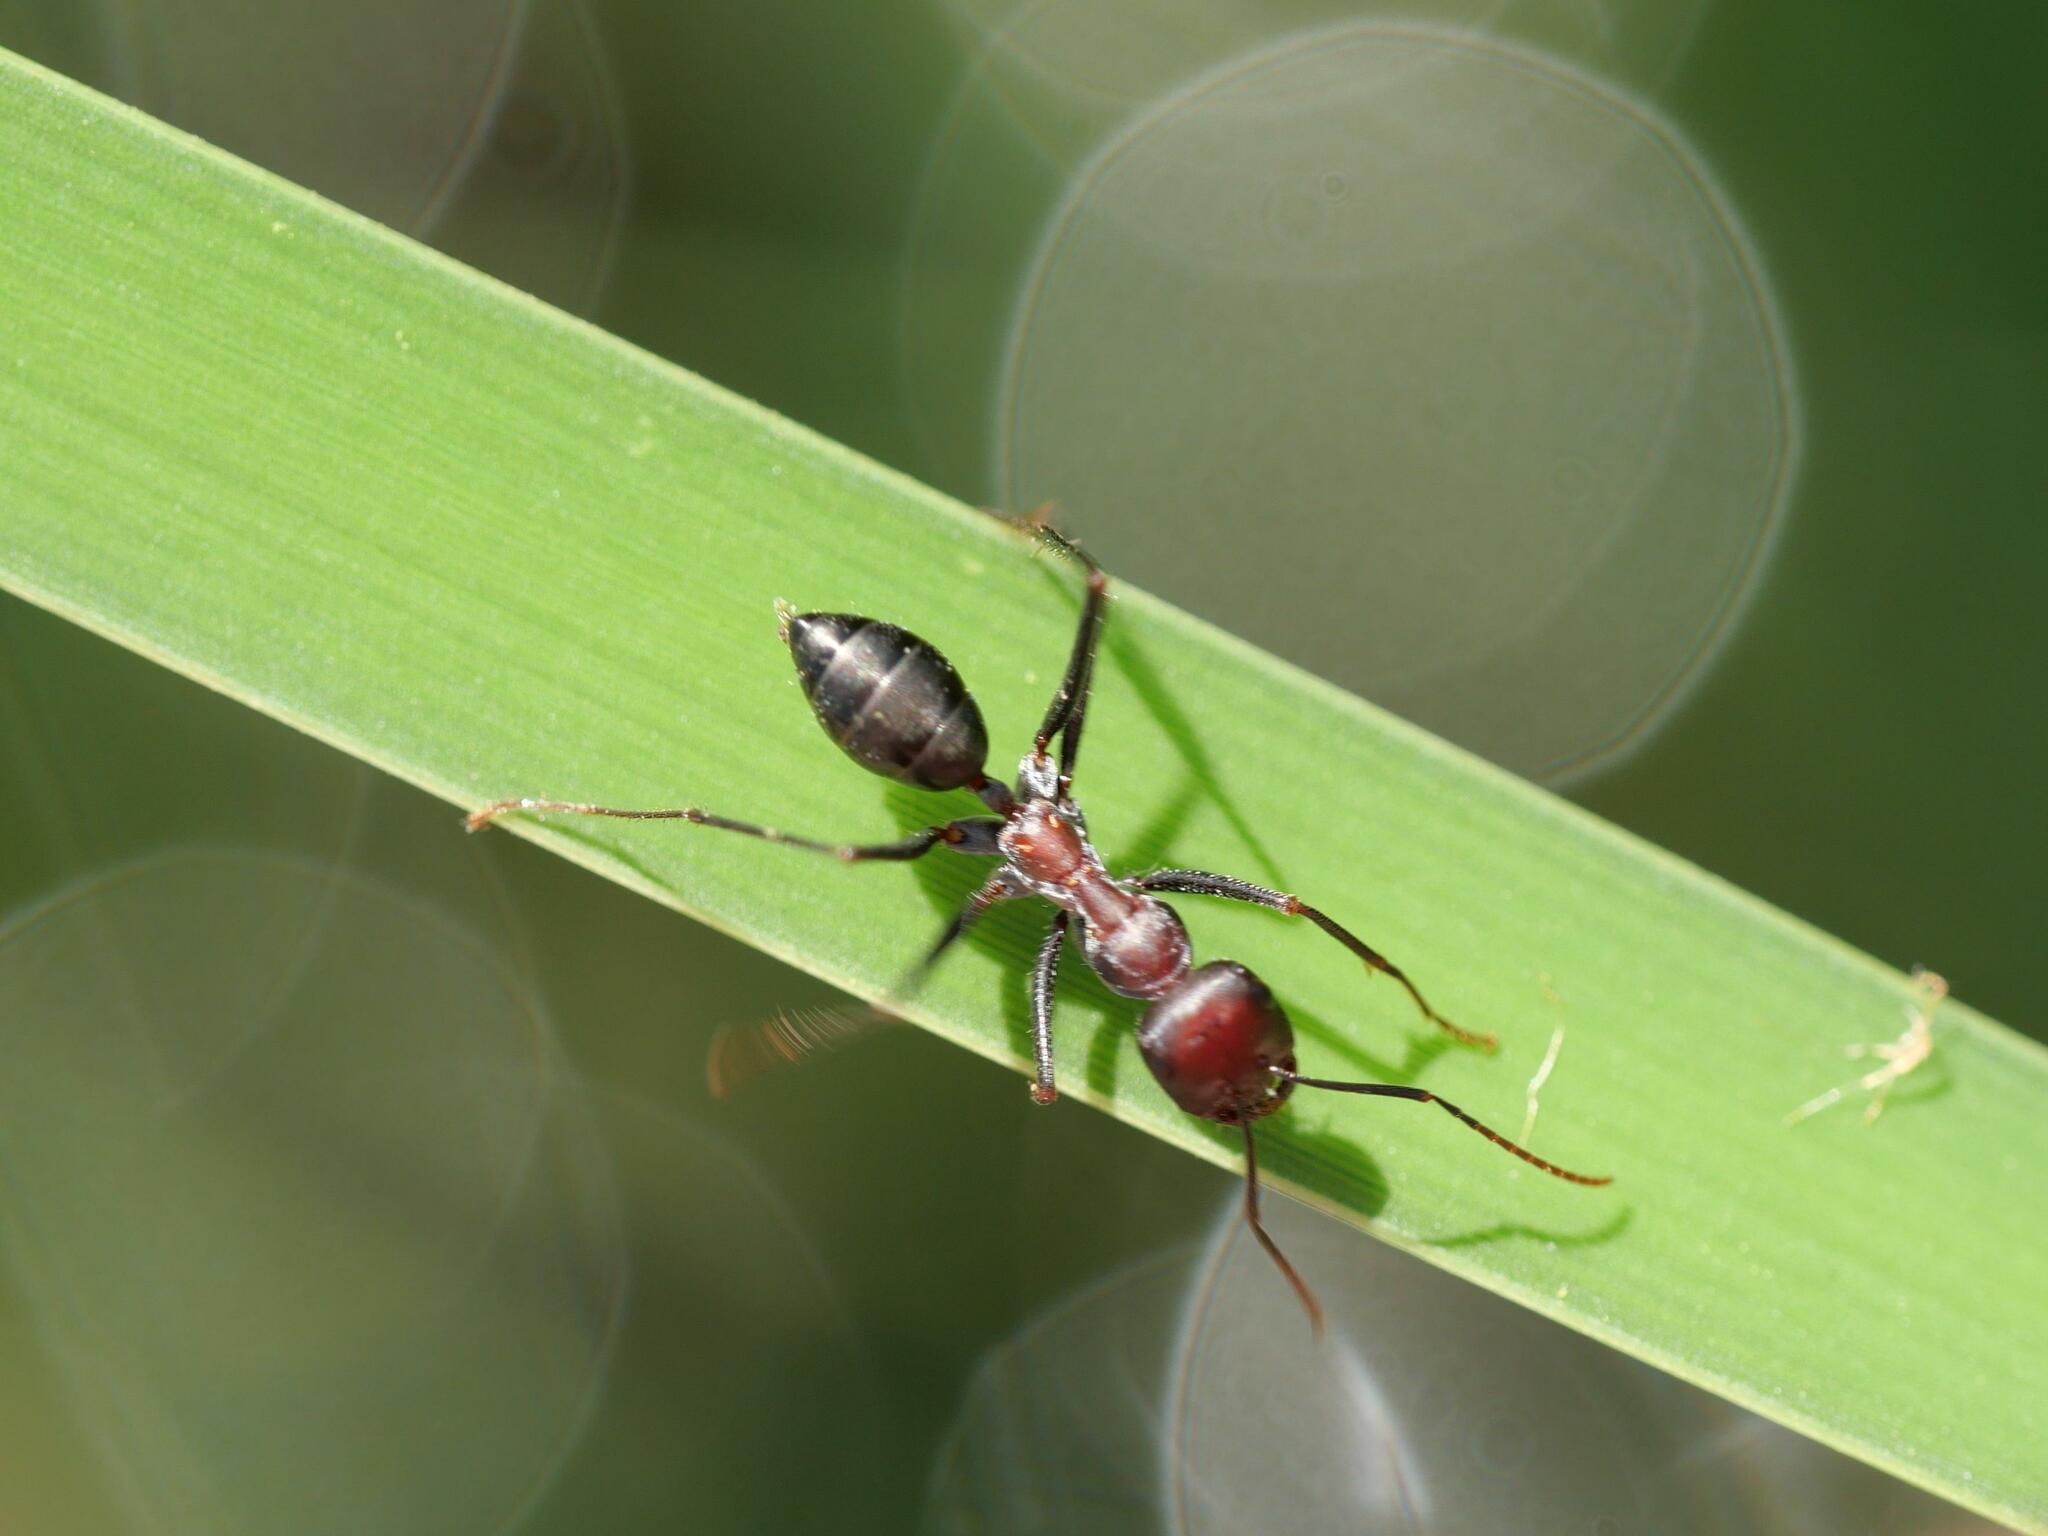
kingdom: Animalia
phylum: Arthropoda
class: Insecta
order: Hymenoptera
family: Formicidae
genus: Cataglyphis
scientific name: Cataglyphis nodus
